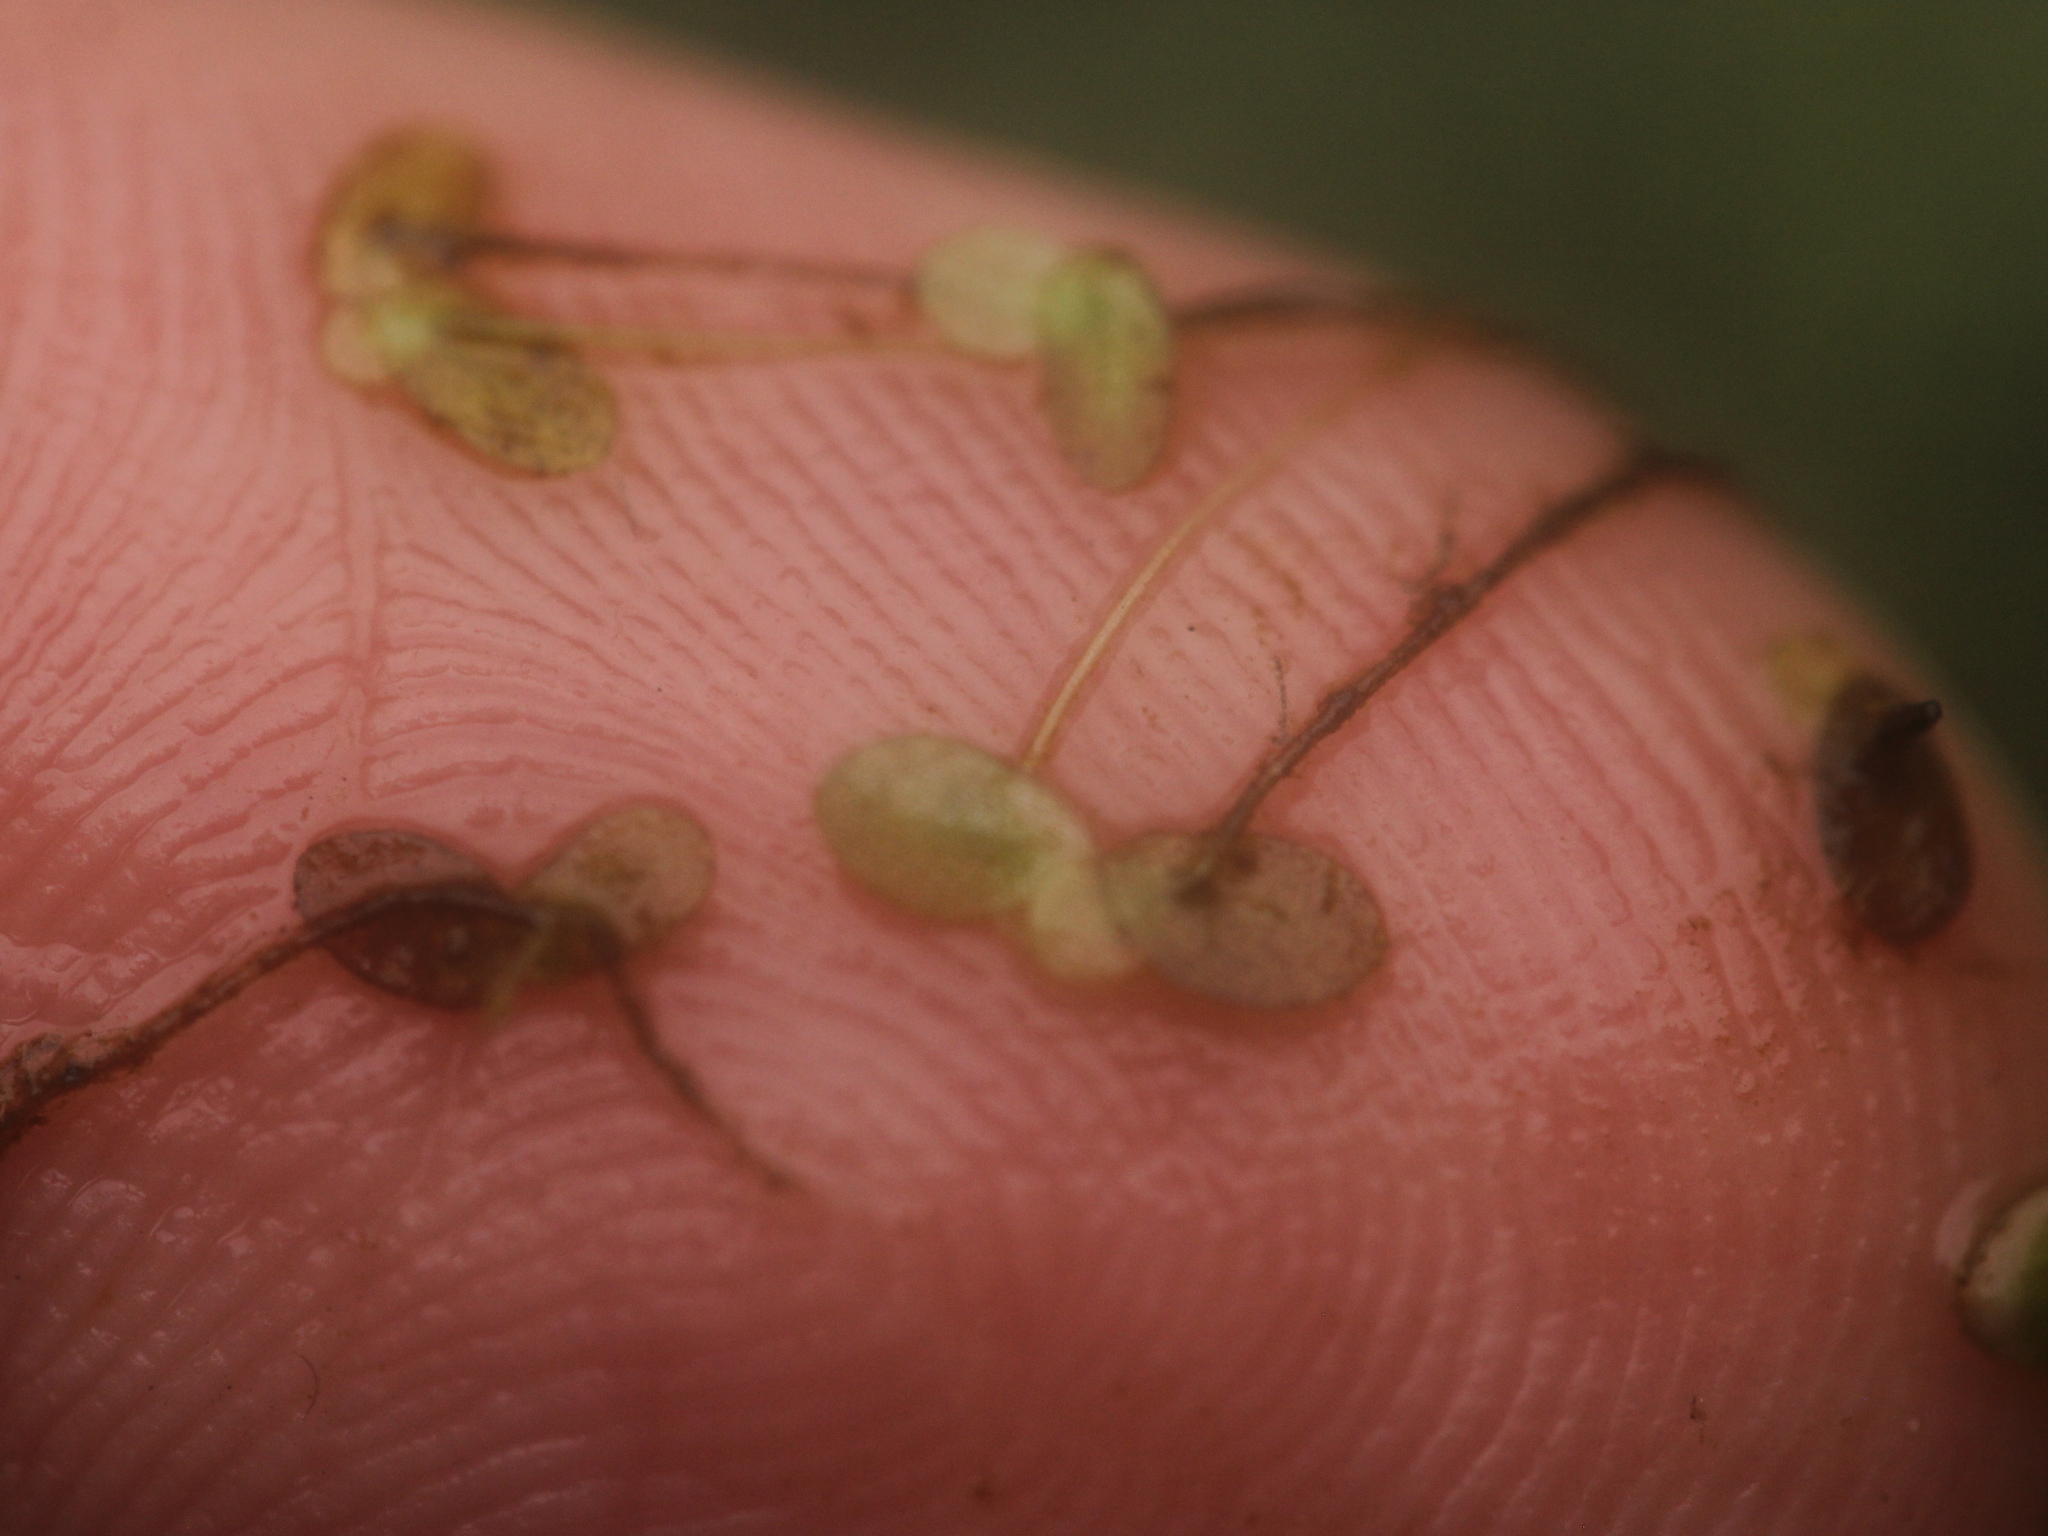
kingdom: Plantae
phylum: Tracheophyta
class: Liliopsida
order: Alismatales
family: Araceae
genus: Lemna
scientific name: Lemna aequinoctialis
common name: Duckweed
